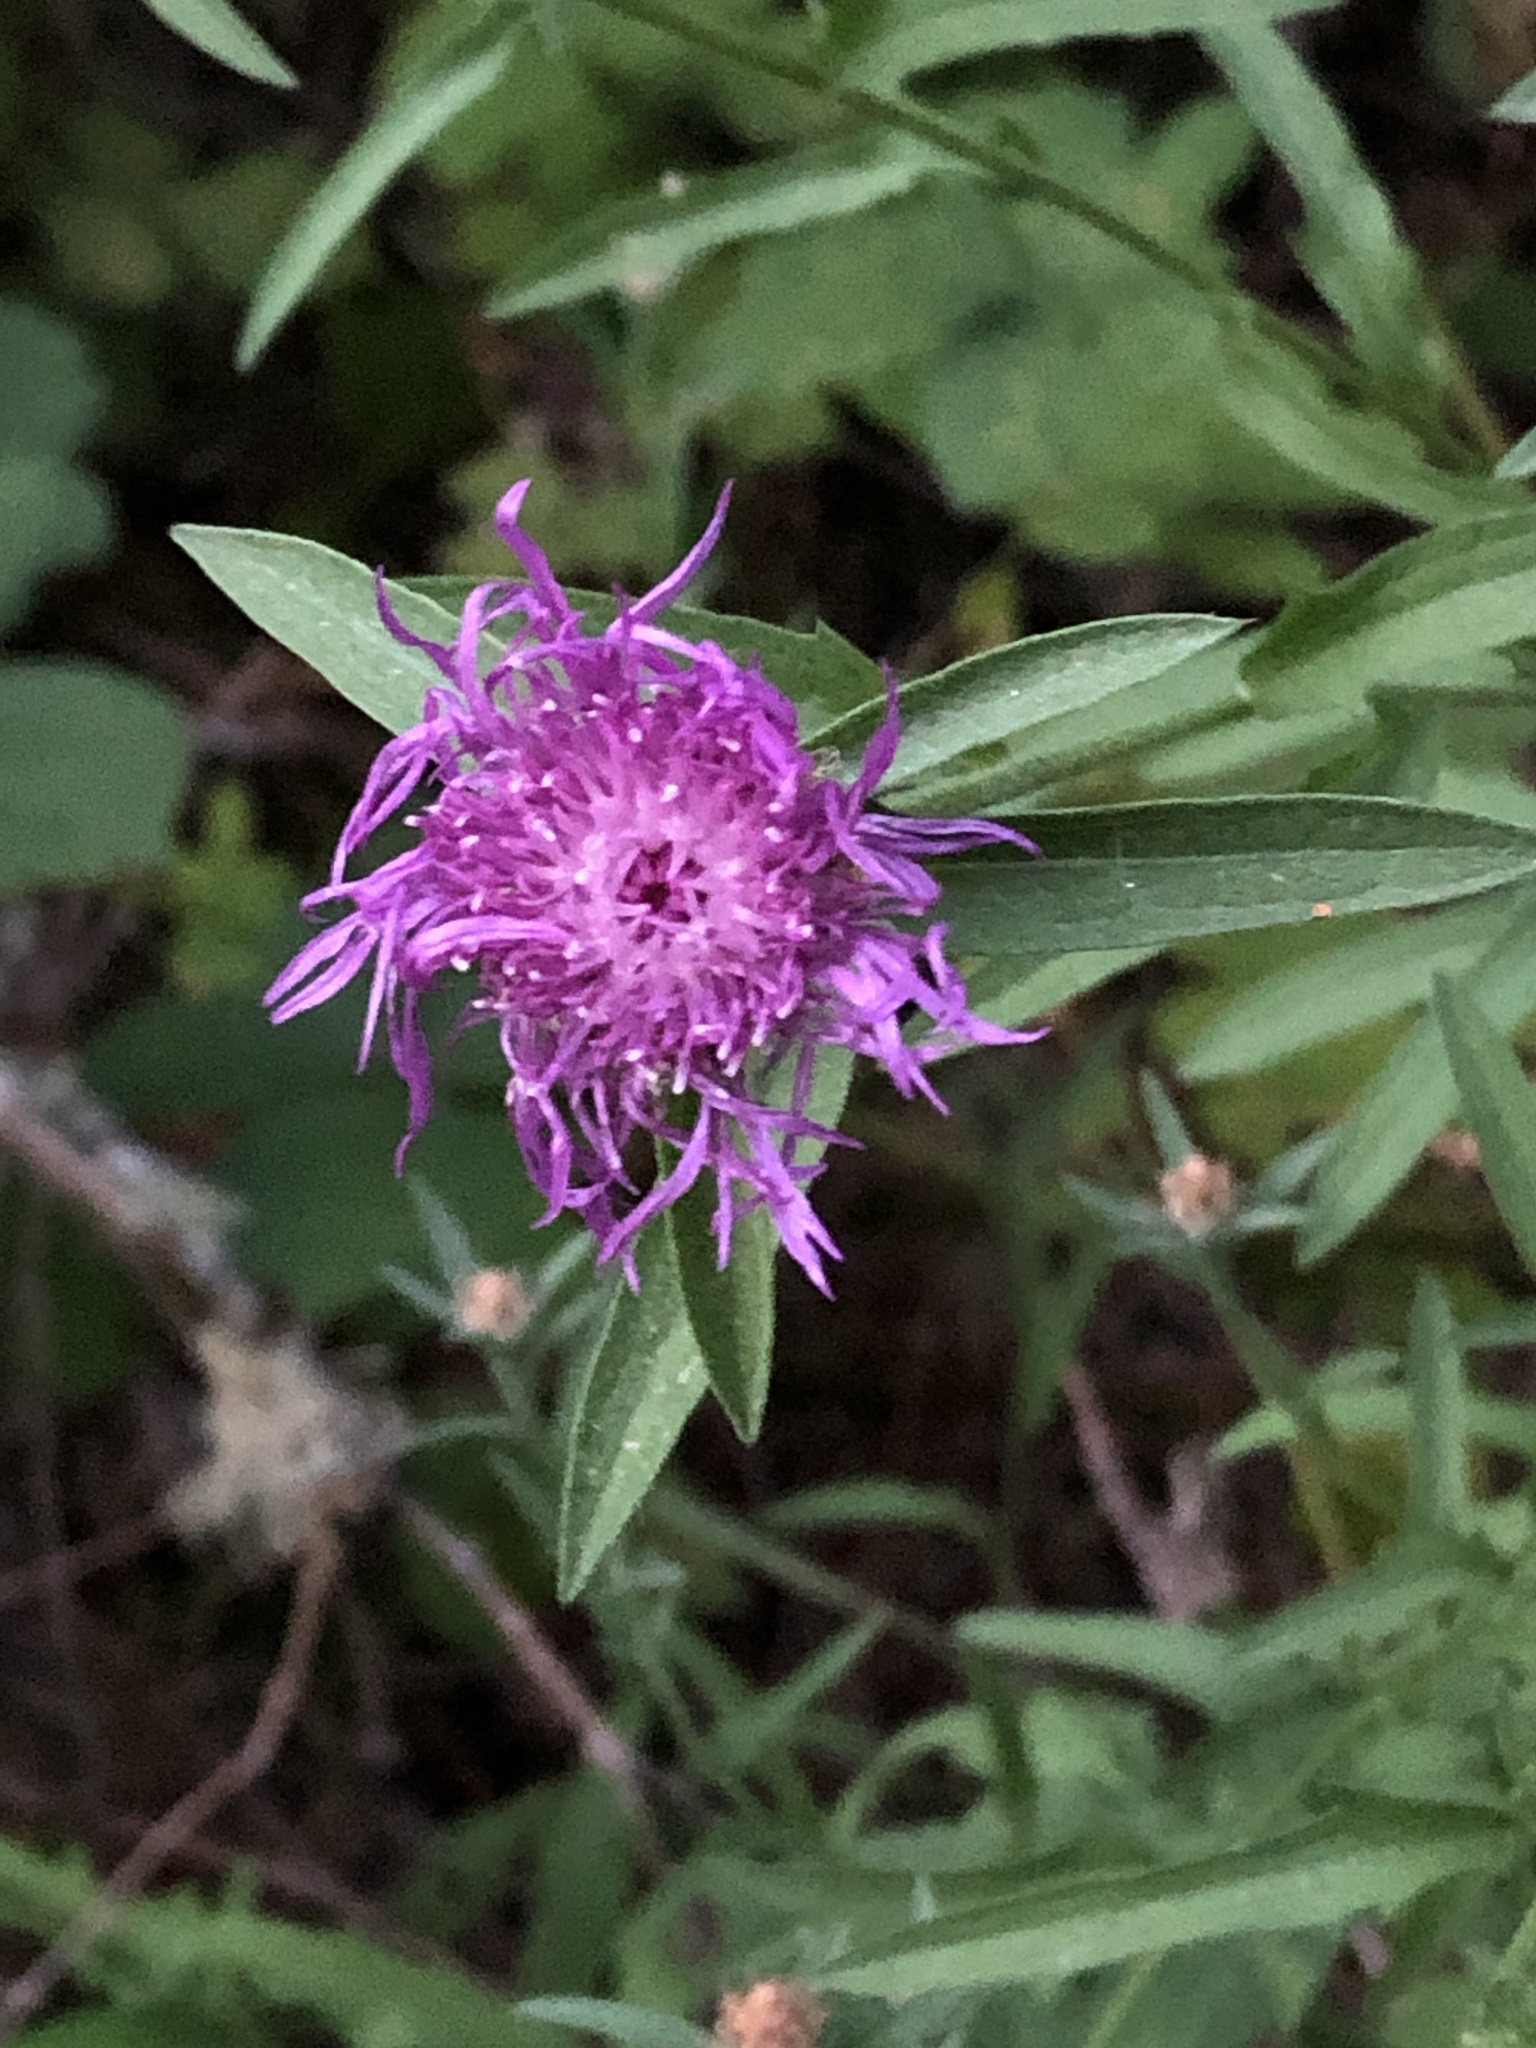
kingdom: Plantae
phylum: Tracheophyta
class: Magnoliopsida
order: Asterales
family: Asteraceae
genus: Centaurea
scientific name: Centaurea moncktonii
